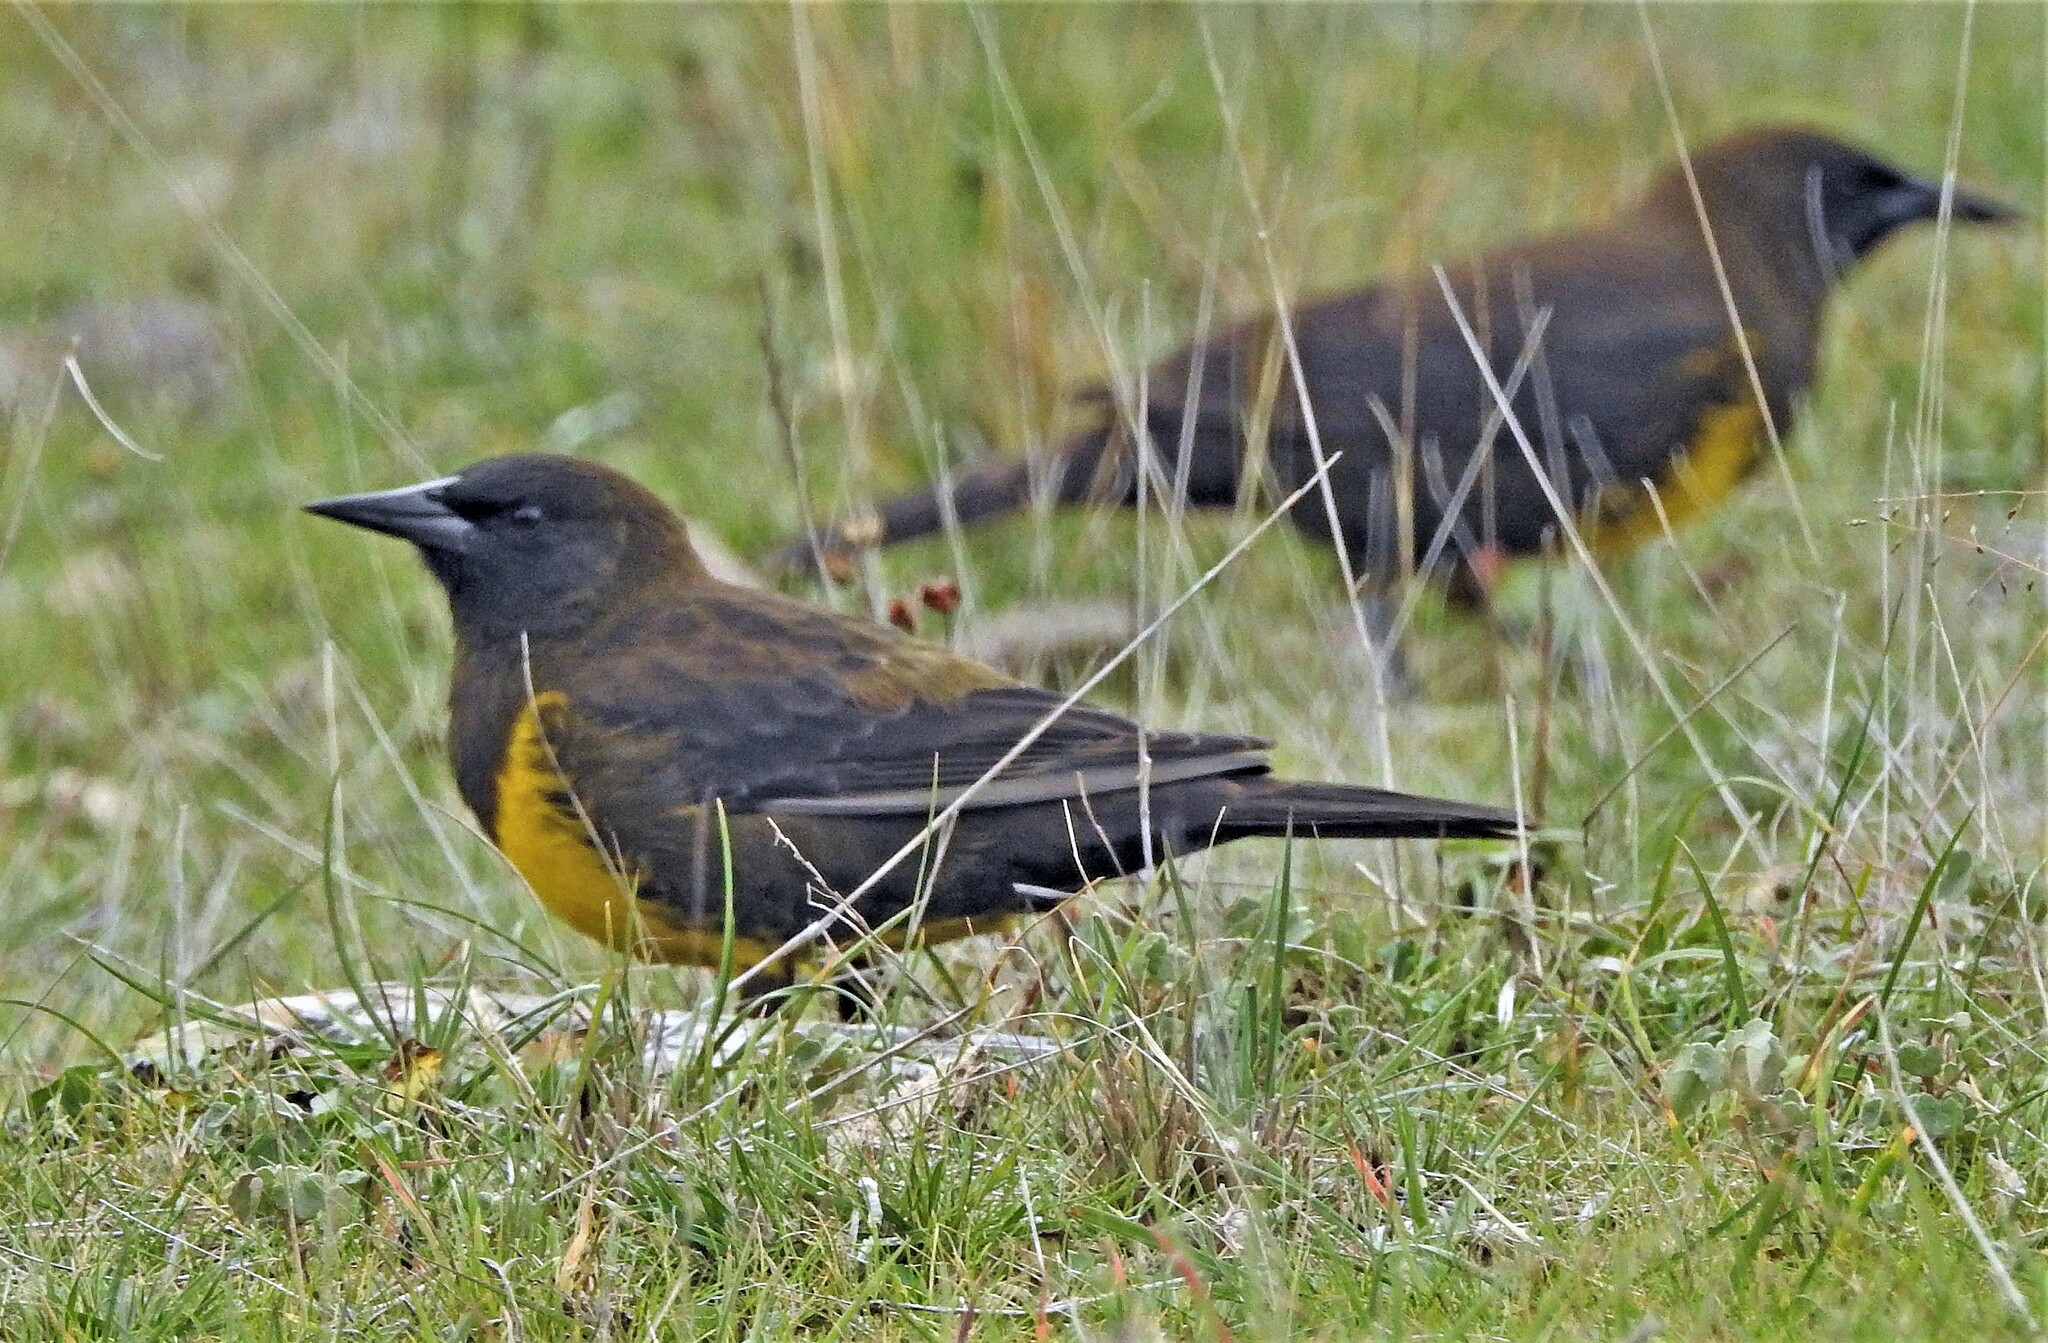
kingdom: Animalia
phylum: Chordata
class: Aves
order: Passeriformes
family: Icteridae
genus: Pseudoleistes
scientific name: Pseudoleistes virescens
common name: Brown-and-yellow marshbird
